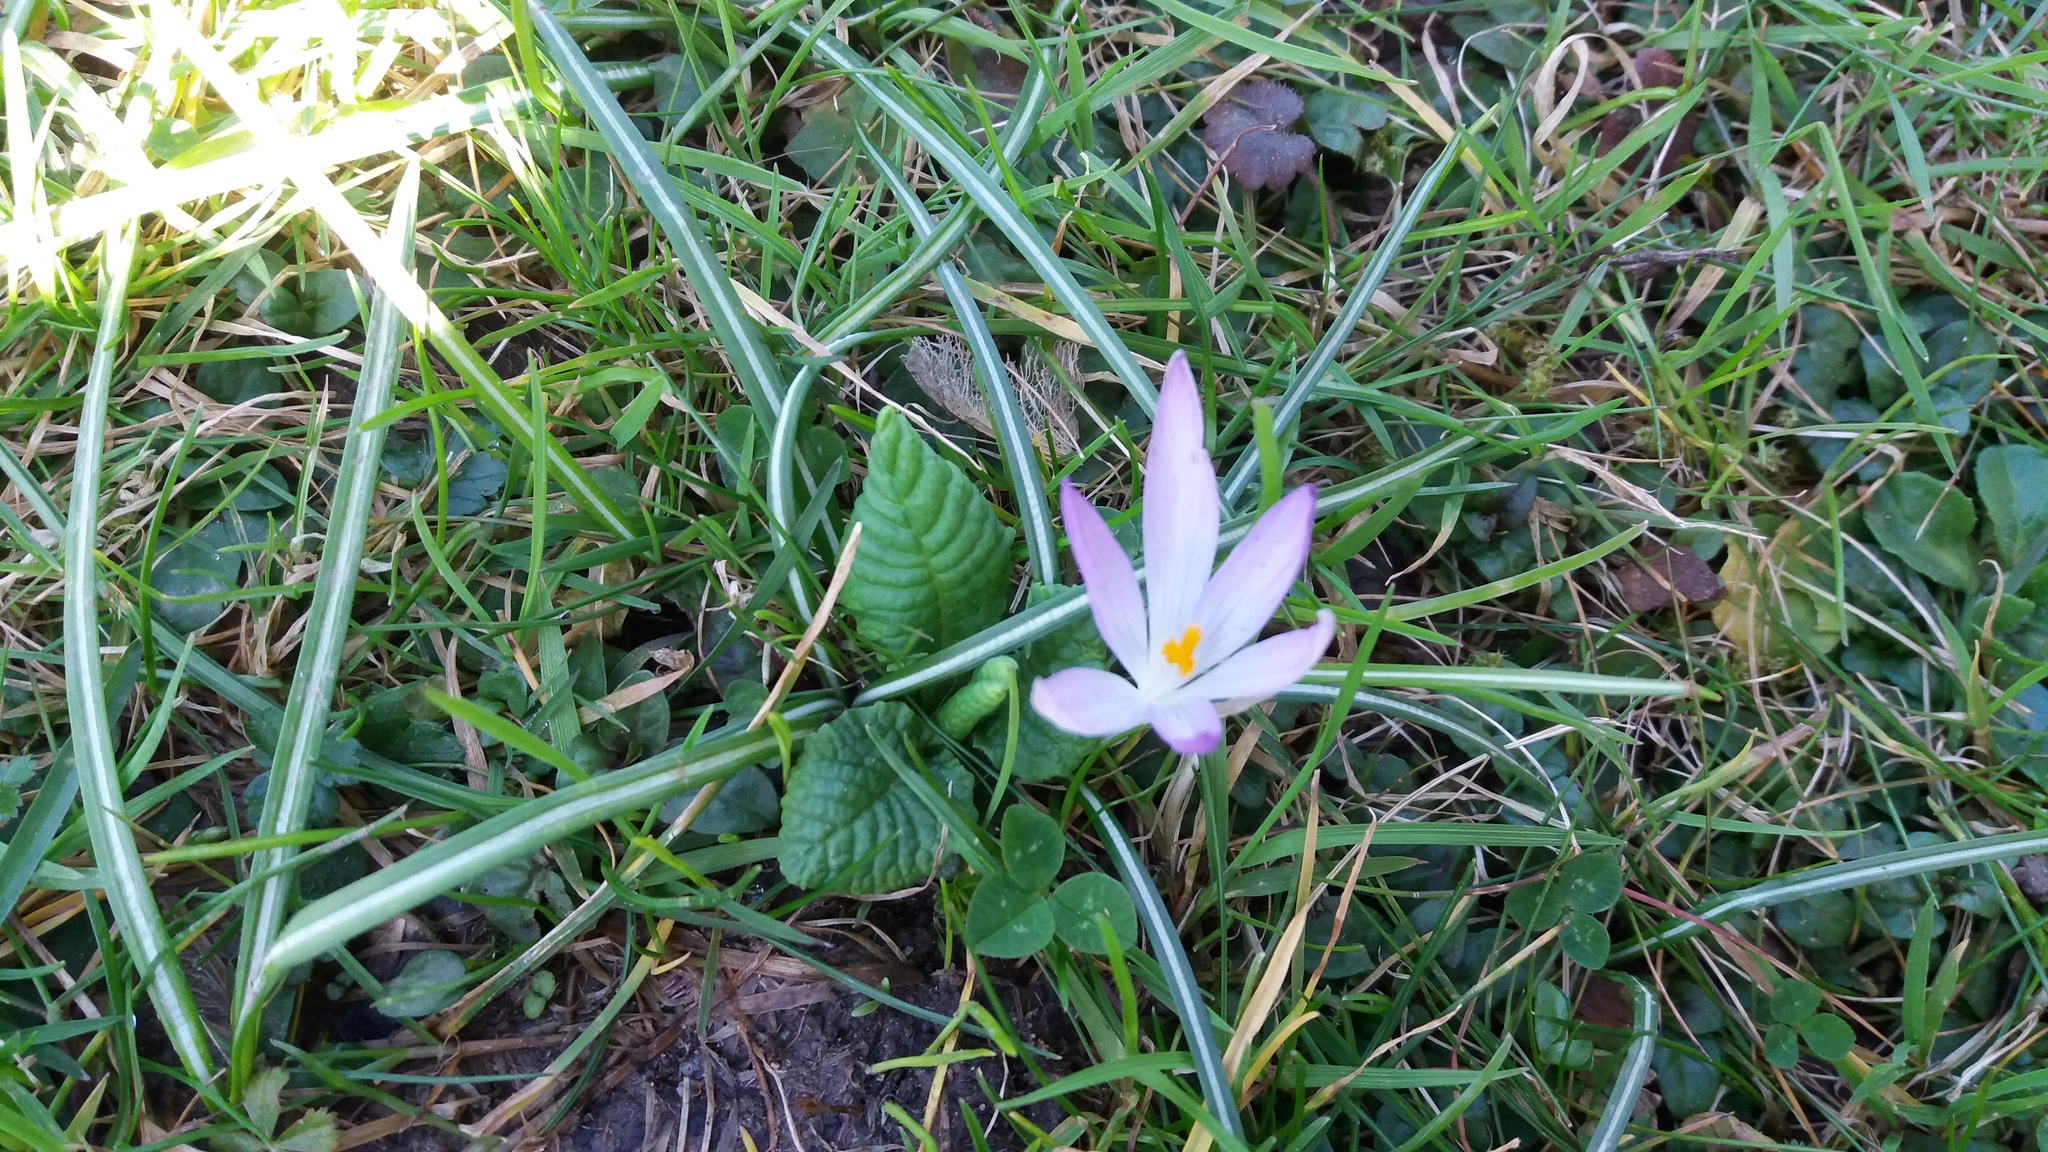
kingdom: Plantae
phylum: Tracheophyta
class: Liliopsida
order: Asparagales
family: Iridaceae
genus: Crocus
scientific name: Crocus tommasinianus
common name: Early crocus
